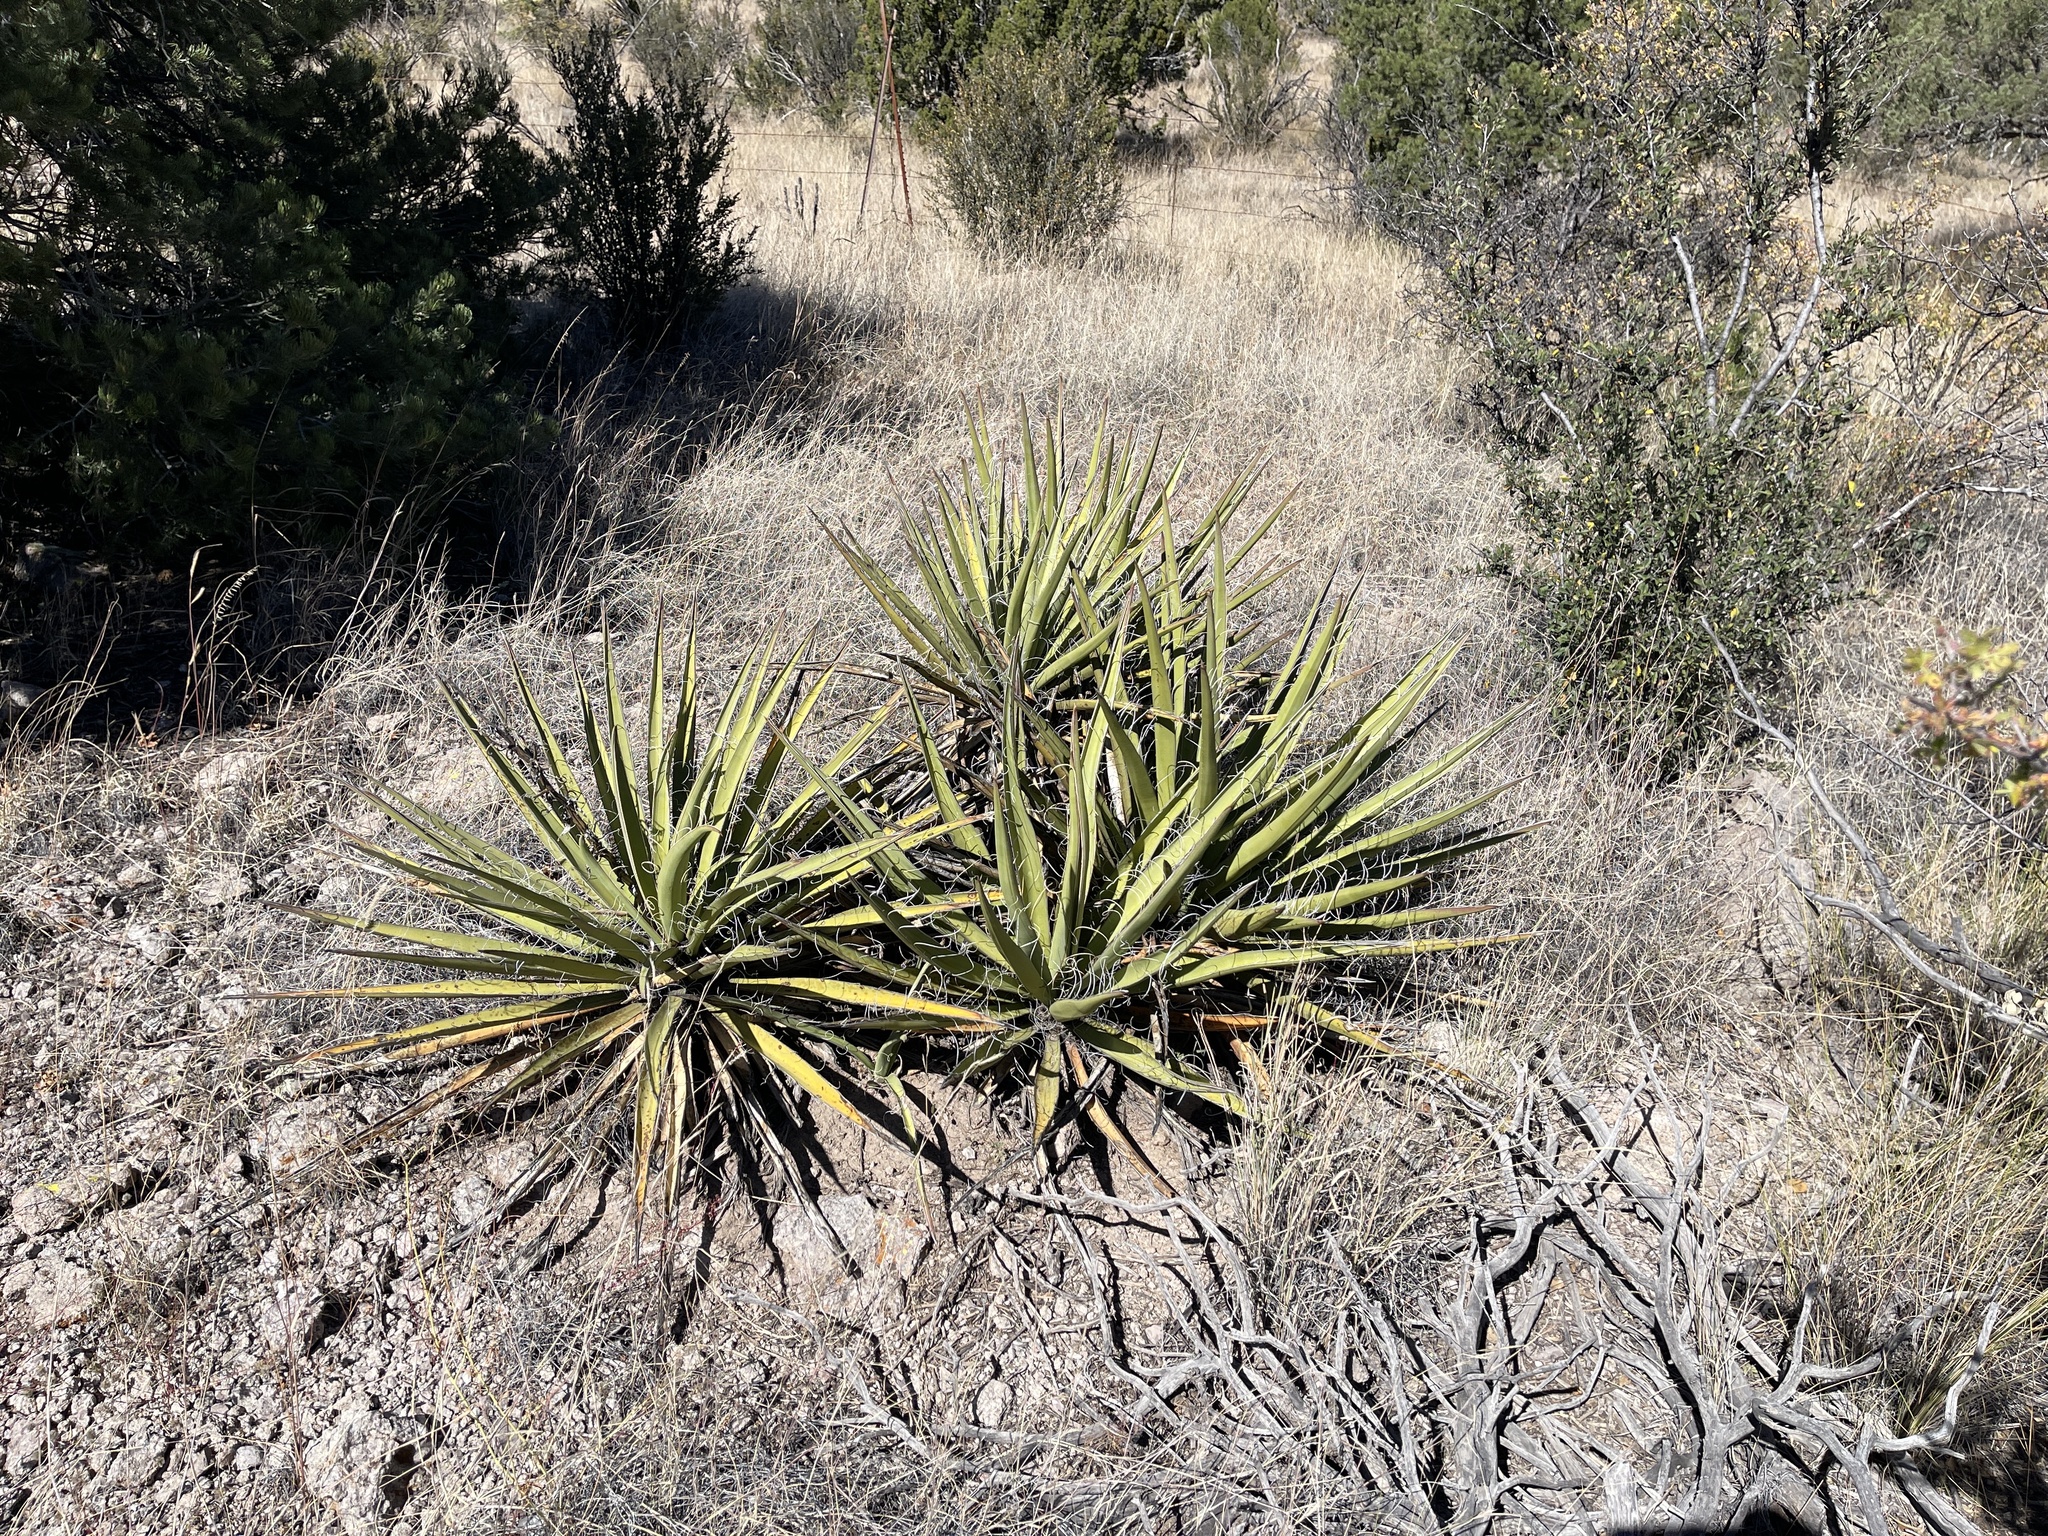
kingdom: Plantae
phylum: Tracheophyta
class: Liliopsida
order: Asparagales
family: Asparagaceae
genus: Yucca
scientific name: Yucca baccata
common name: Banana yucca
